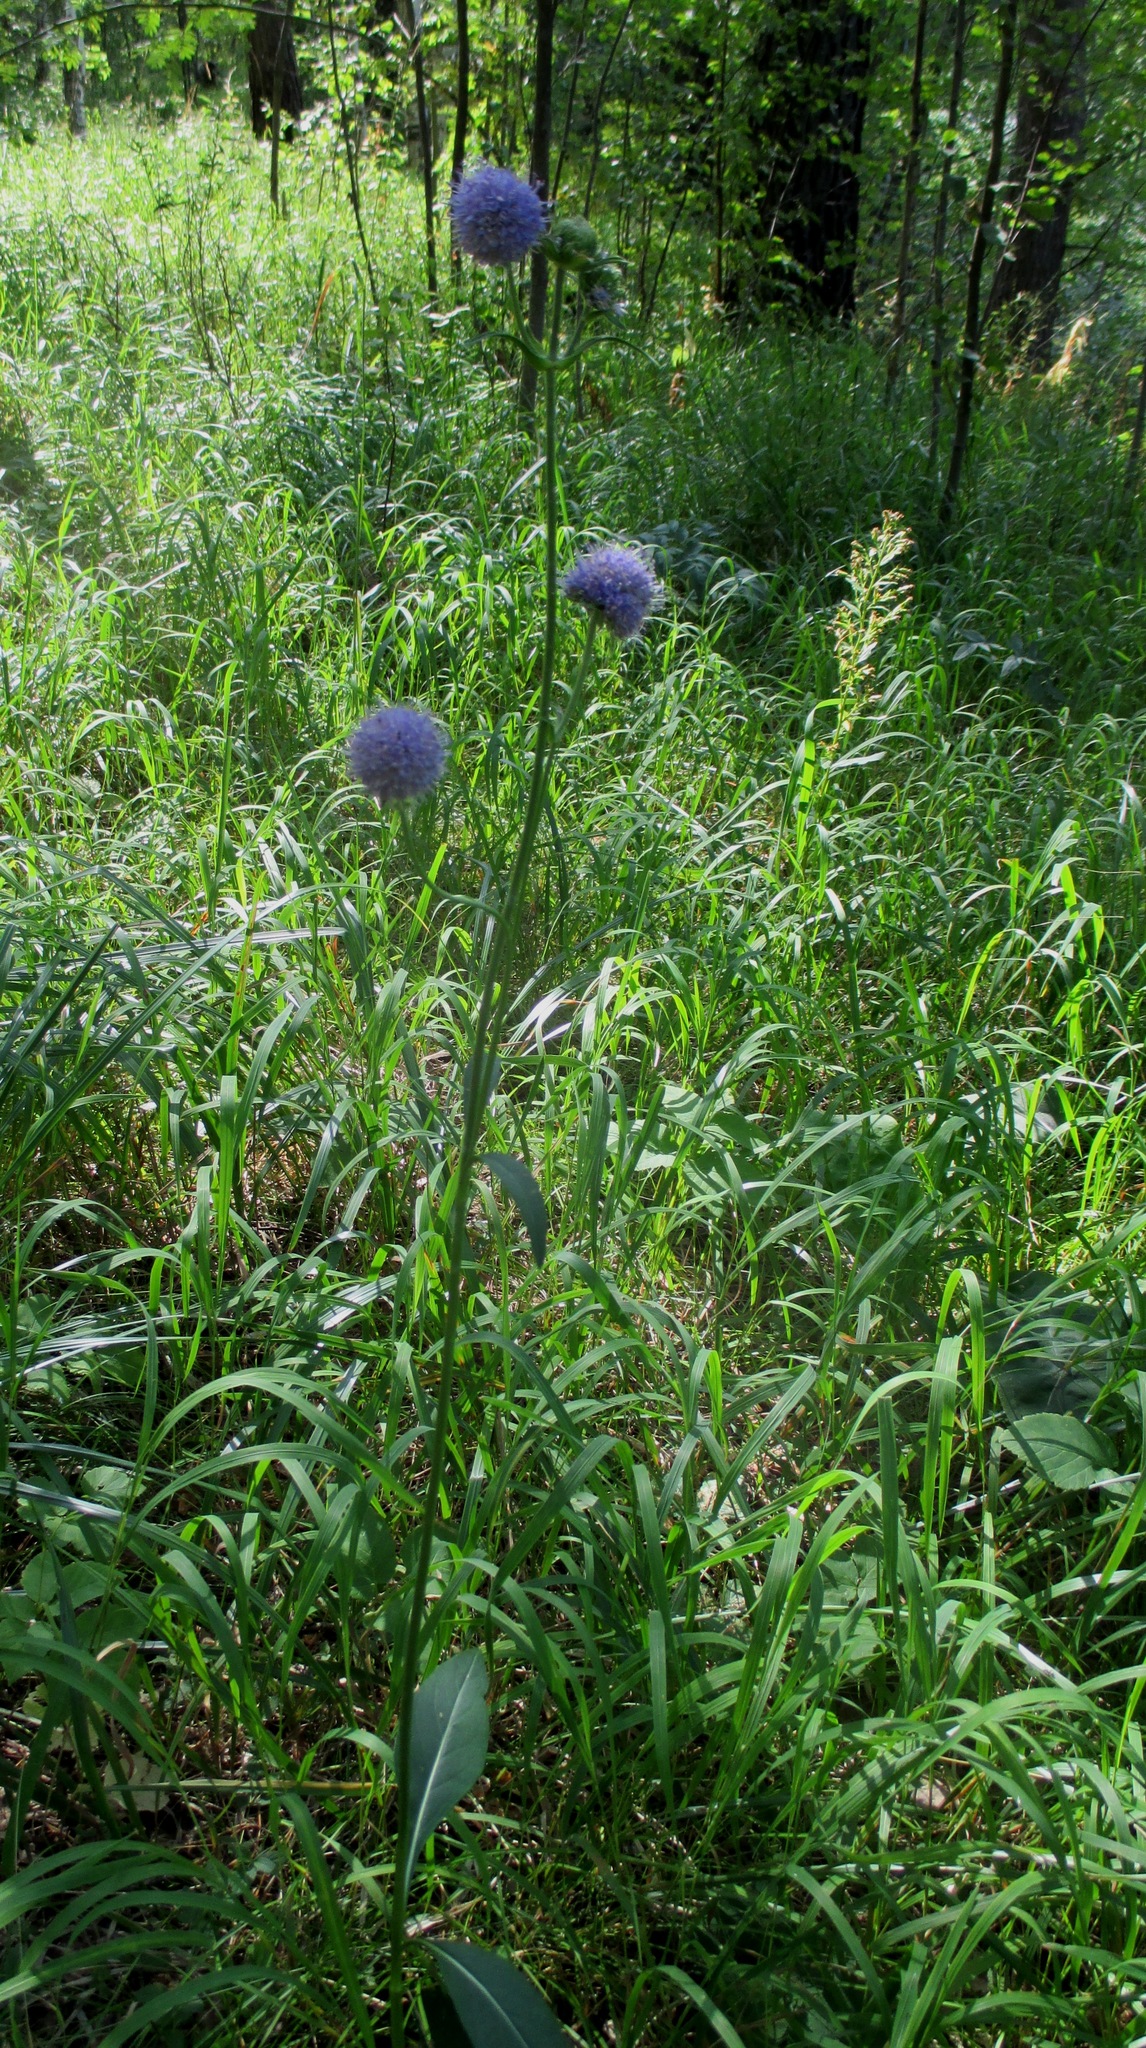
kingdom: Plantae
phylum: Tracheophyta
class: Magnoliopsida
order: Dipsacales
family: Caprifoliaceae
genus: Succisa
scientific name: Succisa pratensis
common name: Devil's-bit
